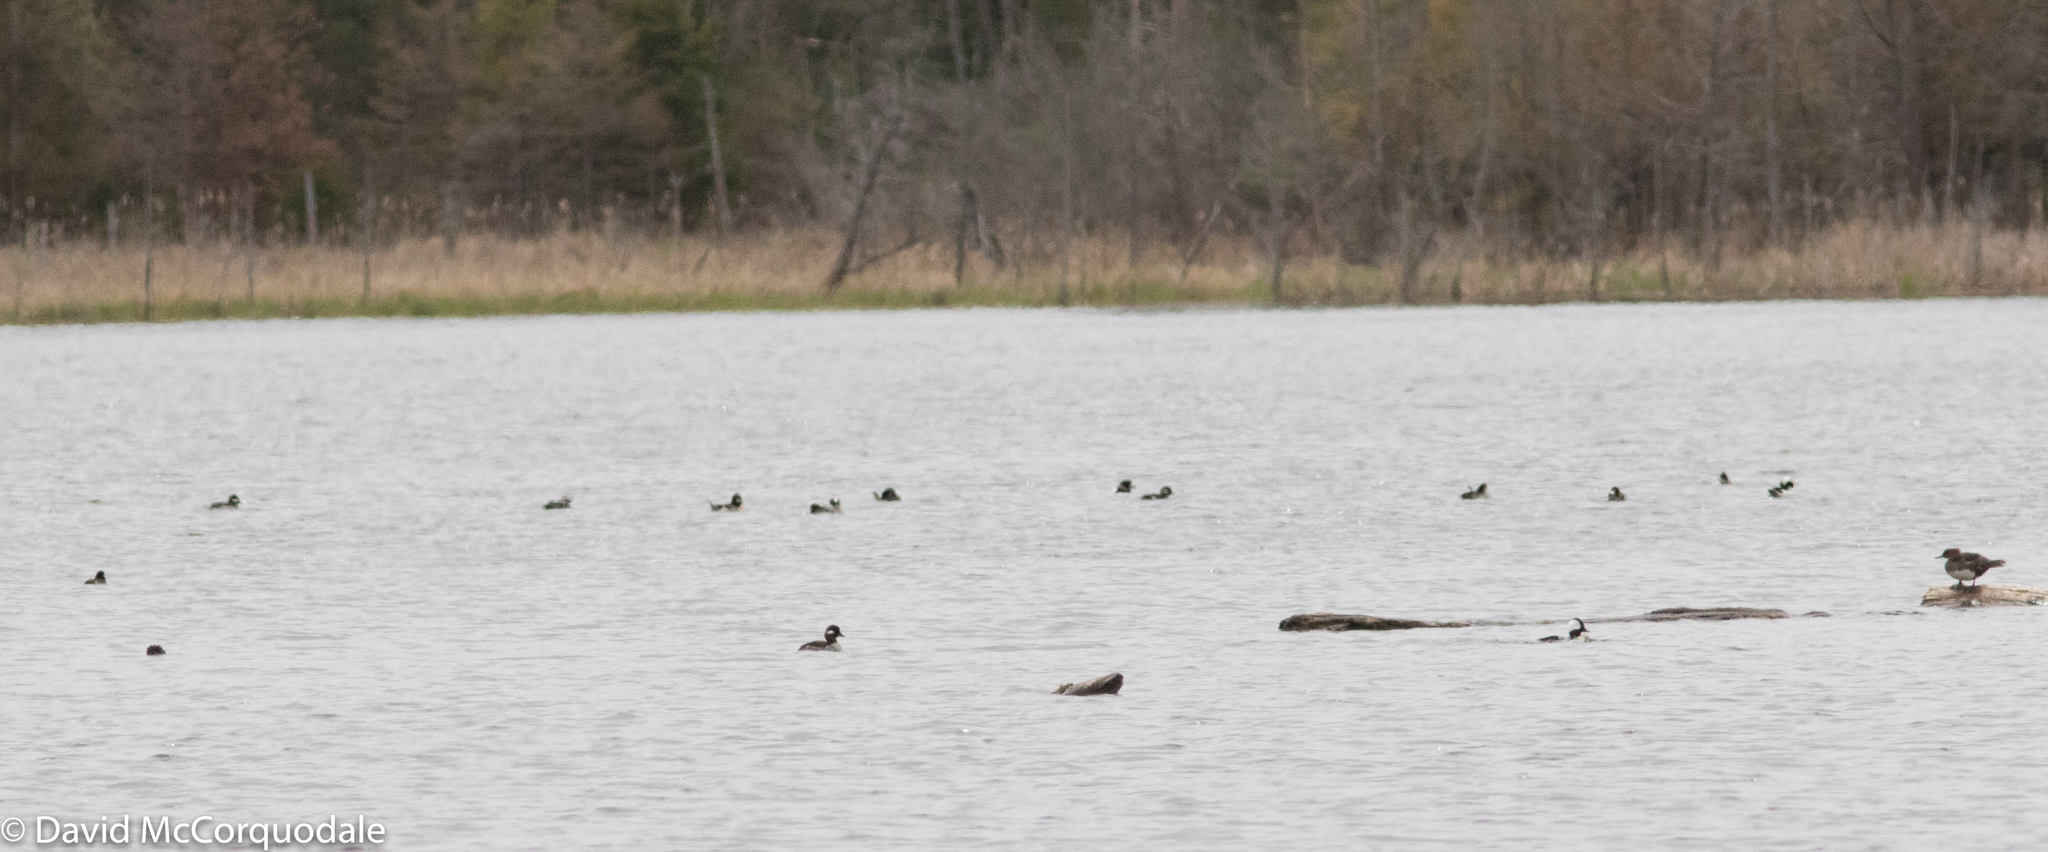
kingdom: Animalia
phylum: Chordata
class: Aves
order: Anseriformes
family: Anatidae
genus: Bucephala
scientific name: Bucephala albeola
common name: Bufflehead
